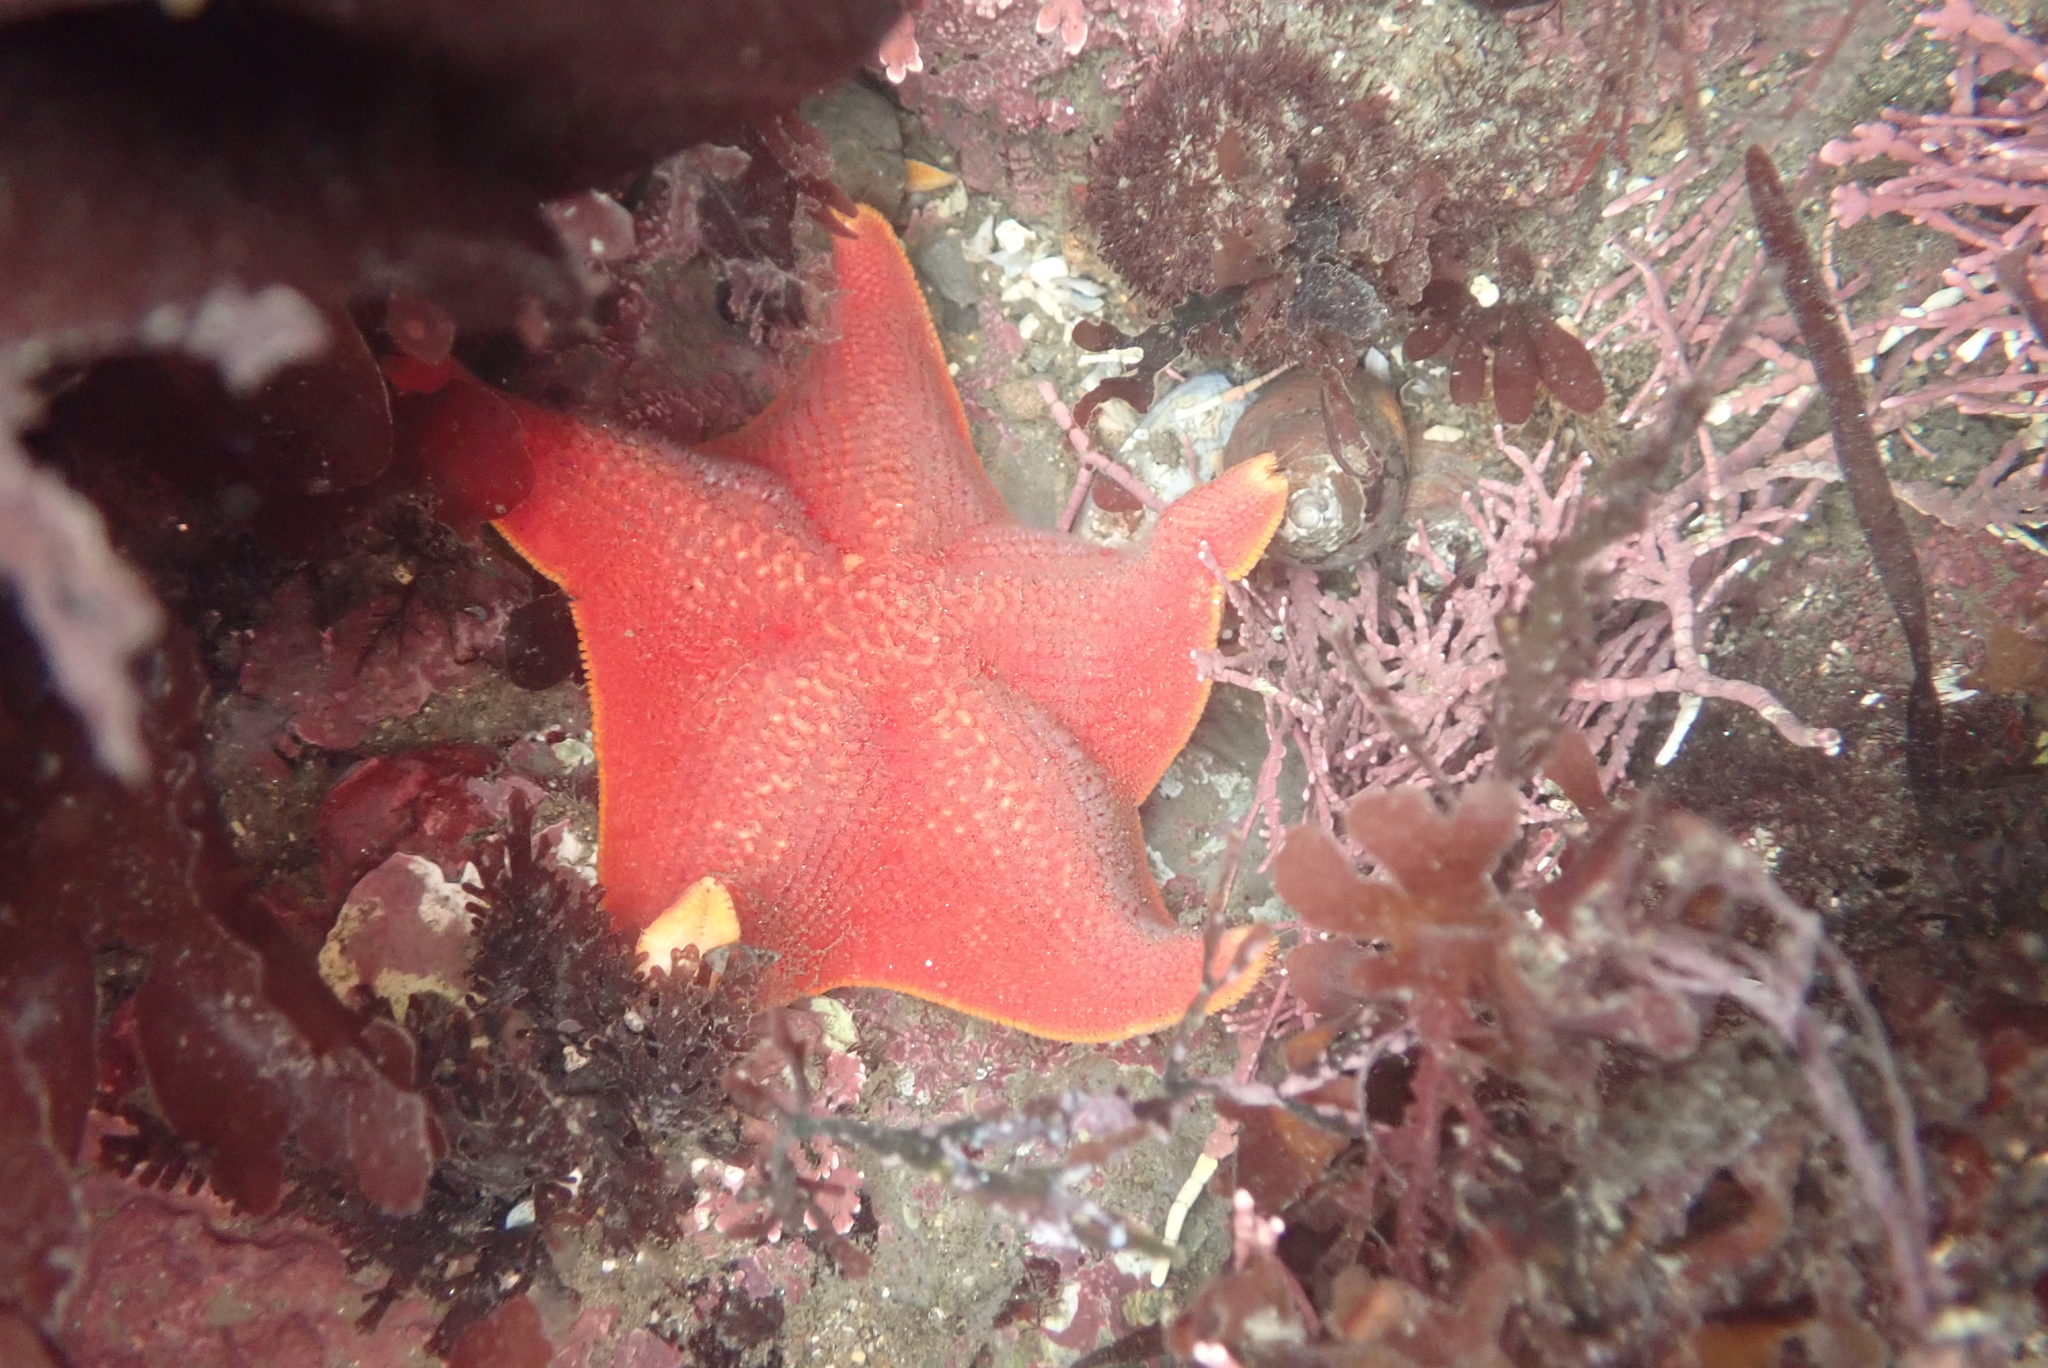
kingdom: Animalia
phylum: Echinodermata
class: Asteroidea
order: Valvatida
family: Asterinidae
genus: Patiria
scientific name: Patiria miniata
